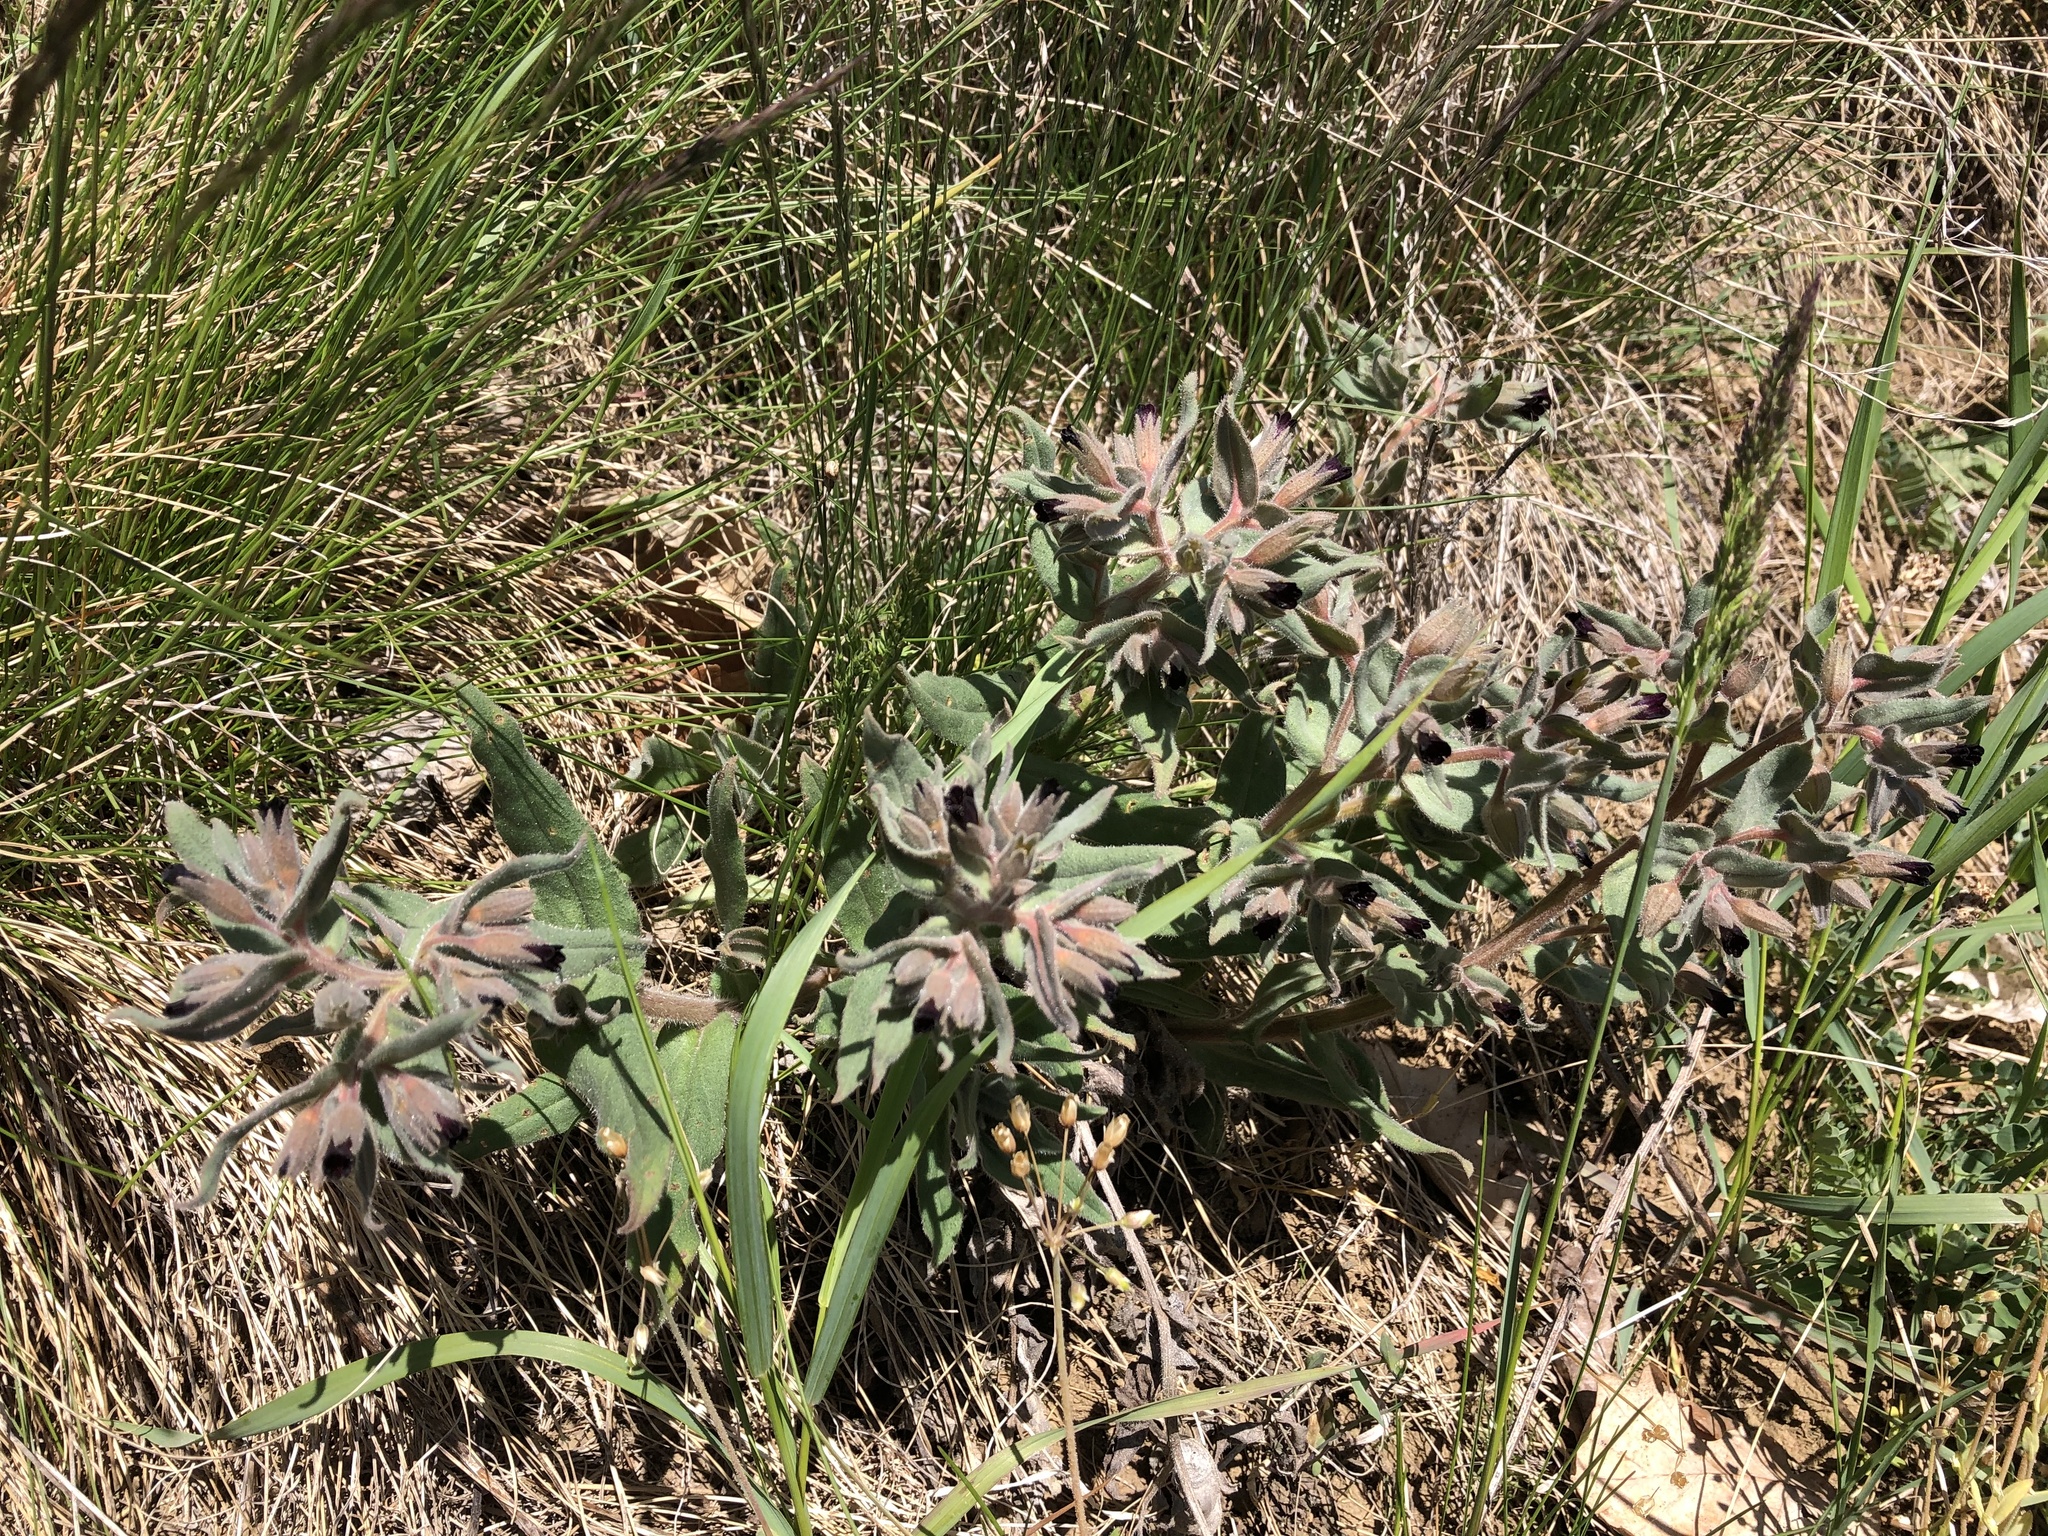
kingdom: Plantae
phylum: Tracheophyta
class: Magnoliopsida
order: Boraginales
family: Boraginaceae
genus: Nonea
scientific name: Nonea pulla
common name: Brown nonea
